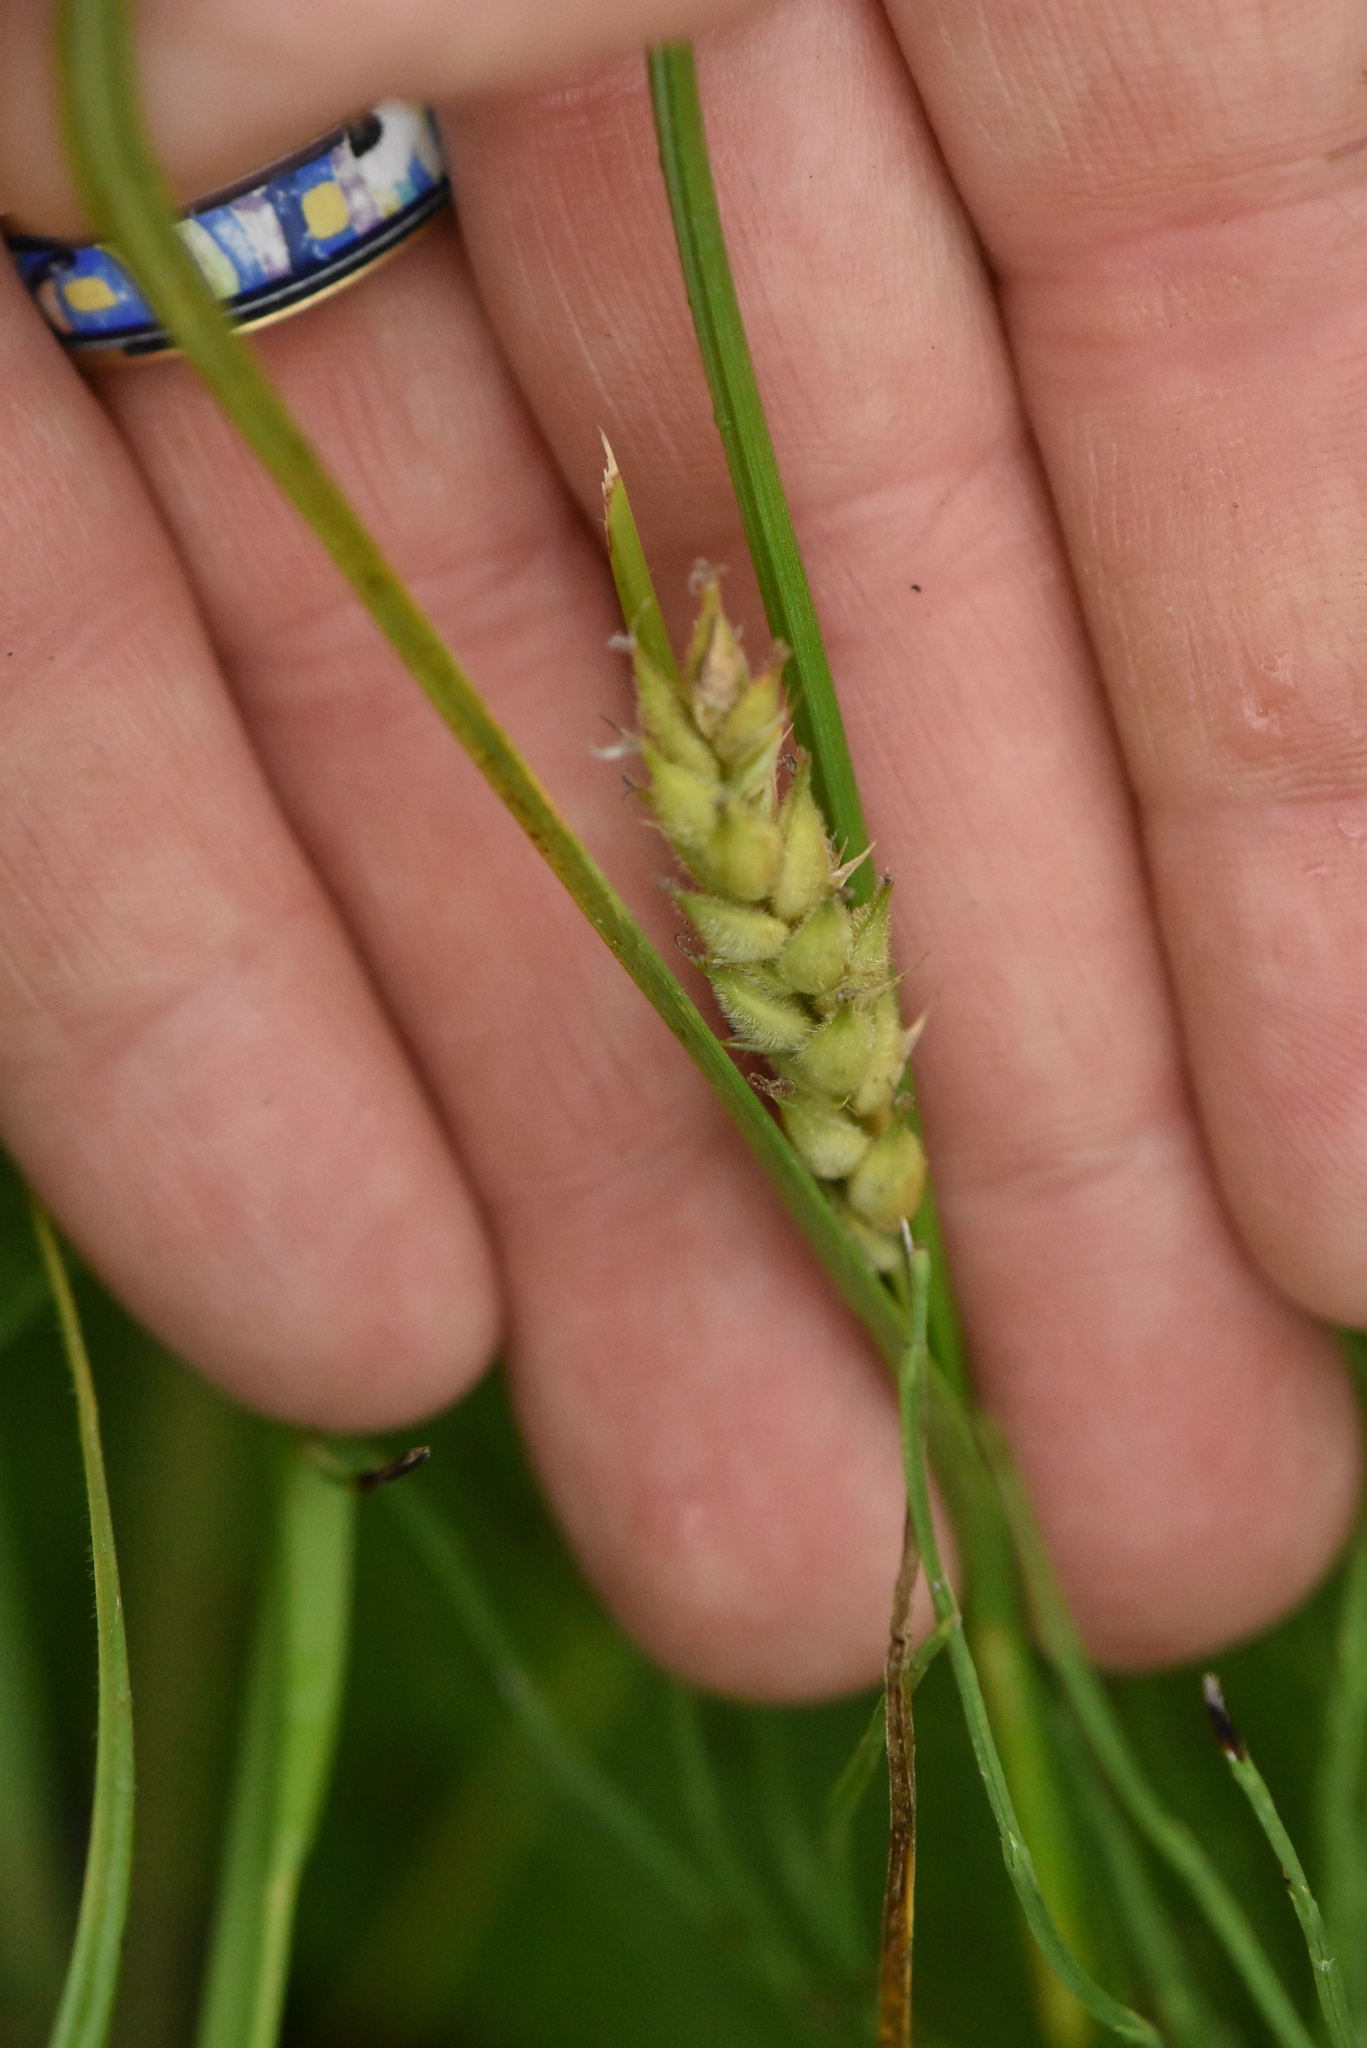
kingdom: Plantae
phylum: Tracheophyta
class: Liliopsida
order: Poales
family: Cyperaceae
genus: Carex
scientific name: Carex hirta
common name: Hairy sedge
